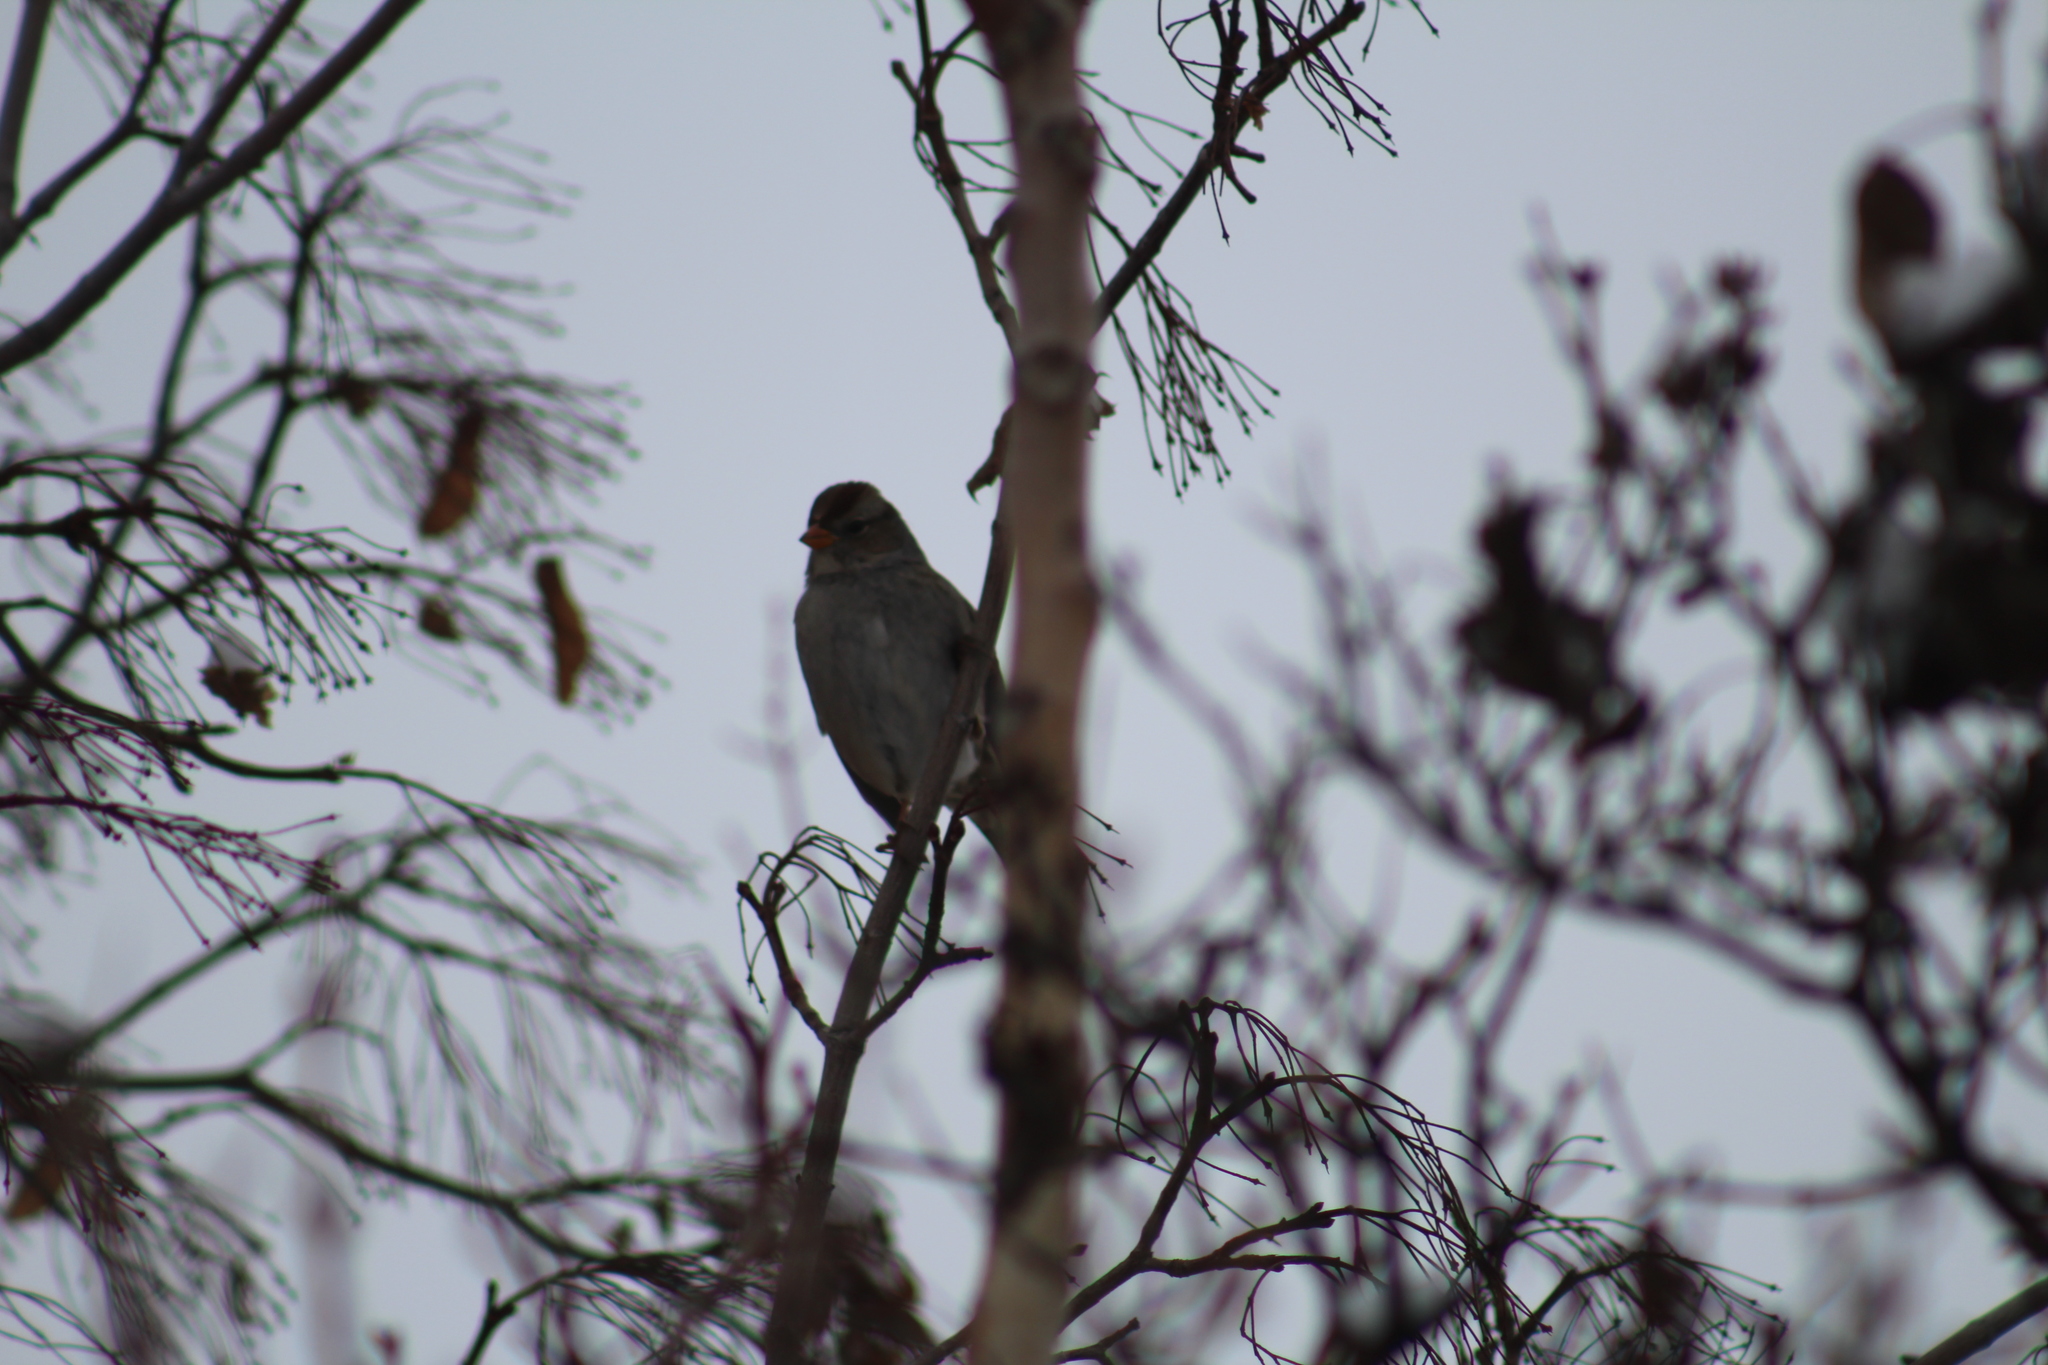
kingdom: Animalia
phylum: Chordata
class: Aves
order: Passeriformes
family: Passerellidae
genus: Zonotrichia
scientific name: Zonotrichia leucophrys
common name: White-crowned sparrow
